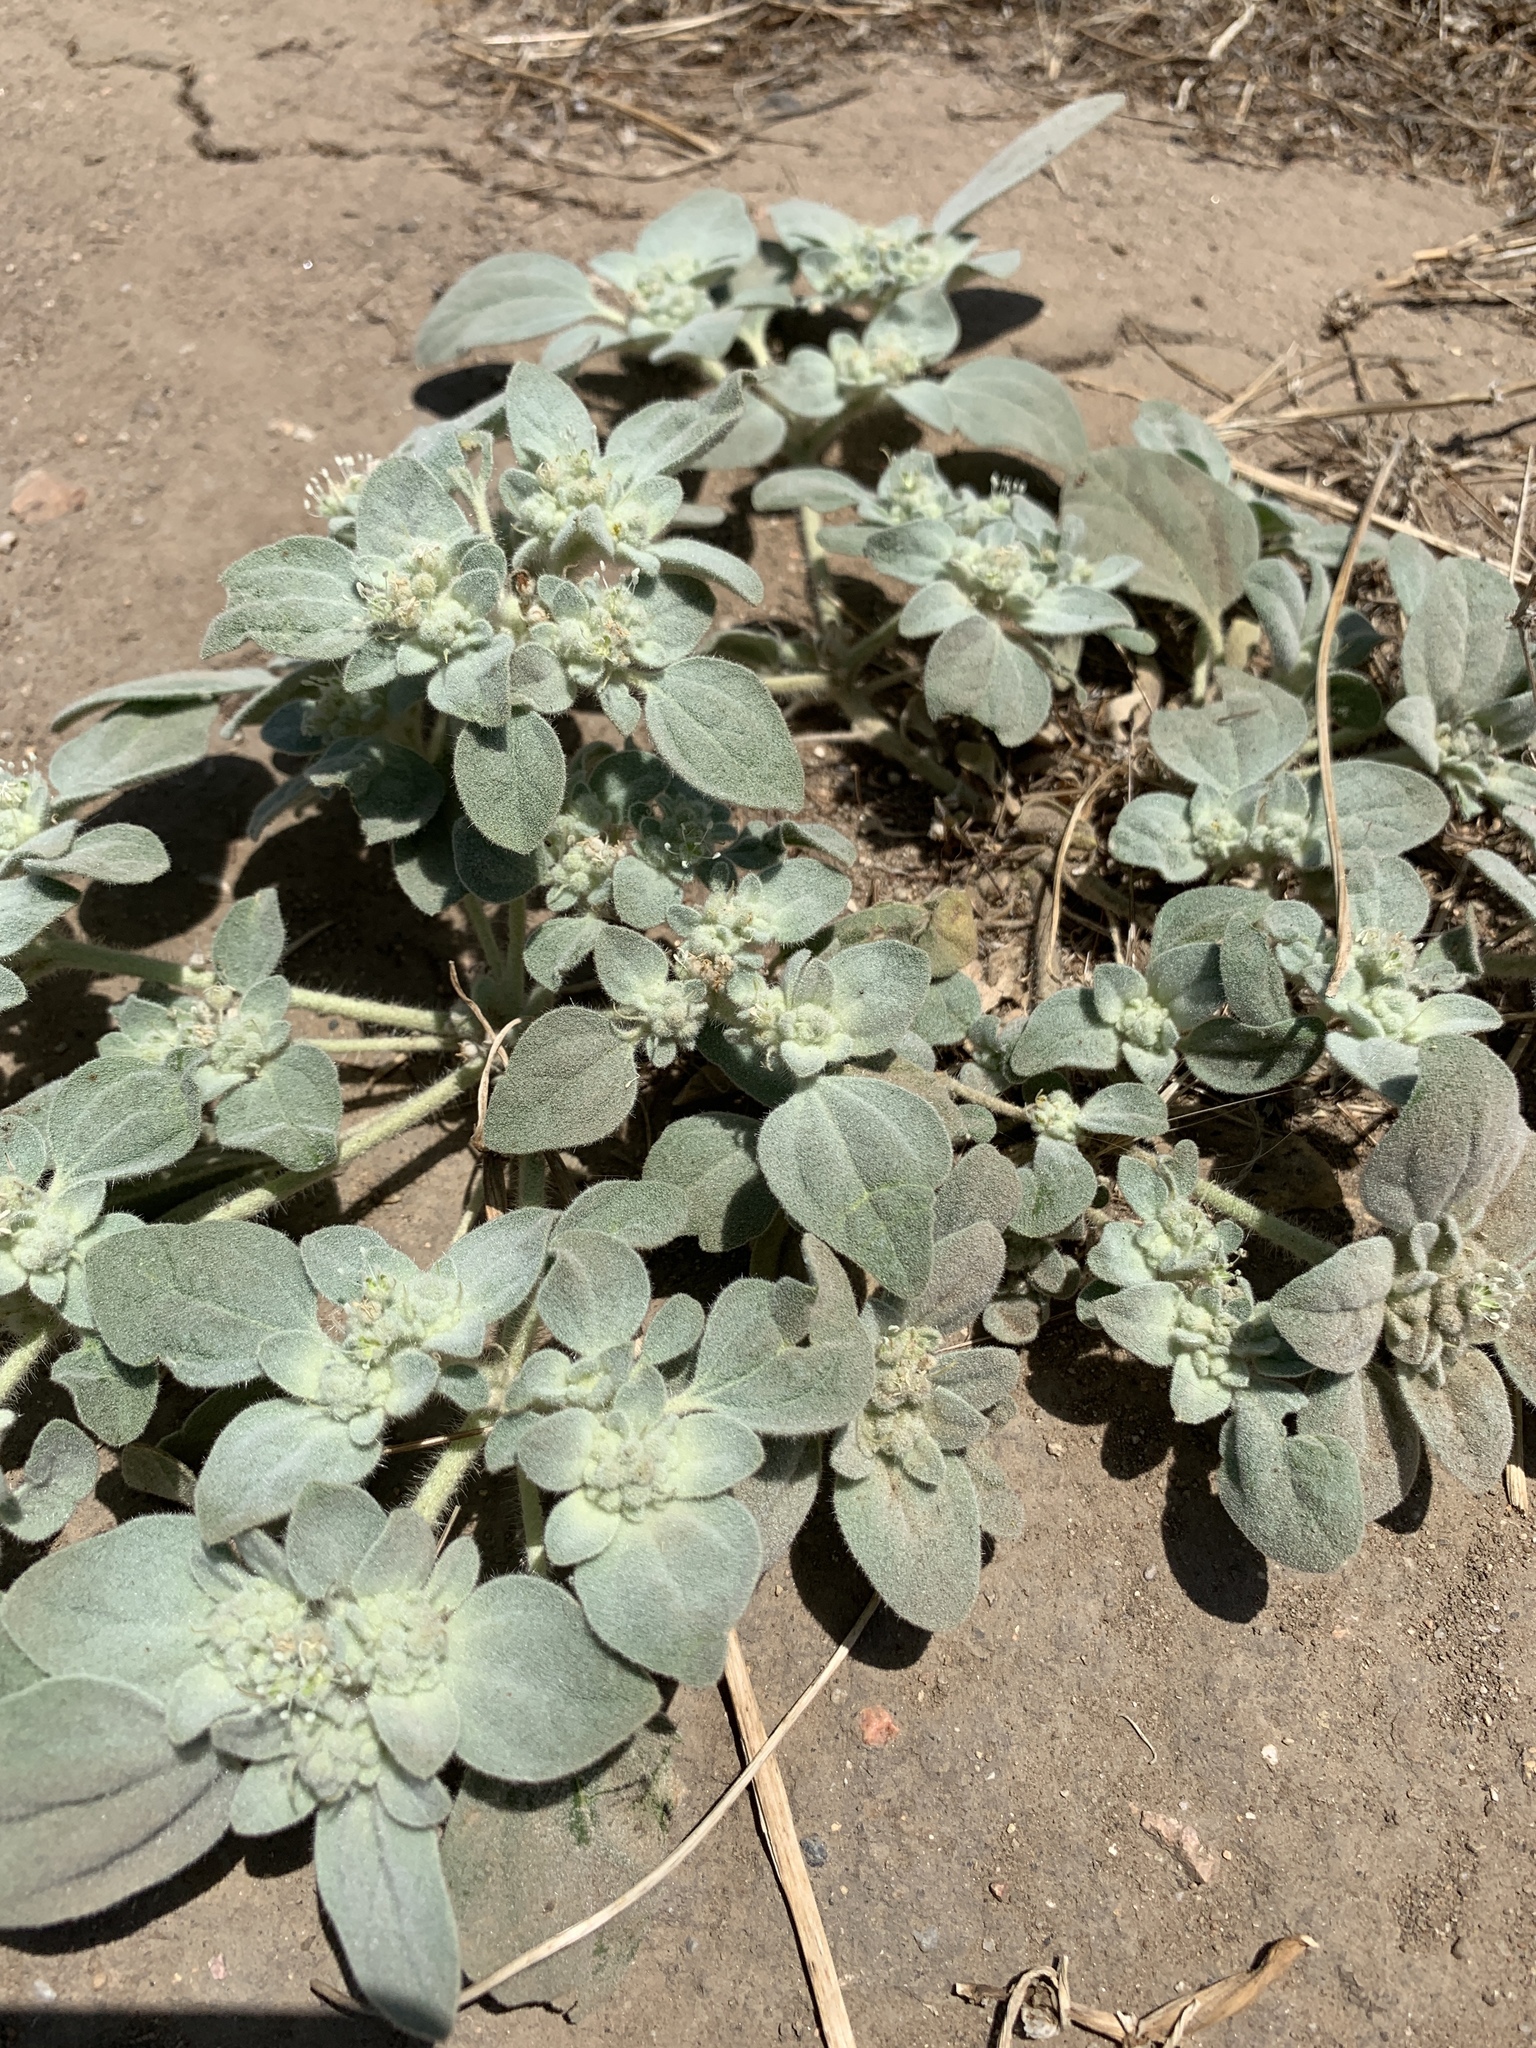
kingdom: Plantae
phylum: Tracheophyta
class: Magnoliopsida
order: Malpighiales
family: Euphorbiaceae
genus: Croton
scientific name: Croton setiger
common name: Dove weed
